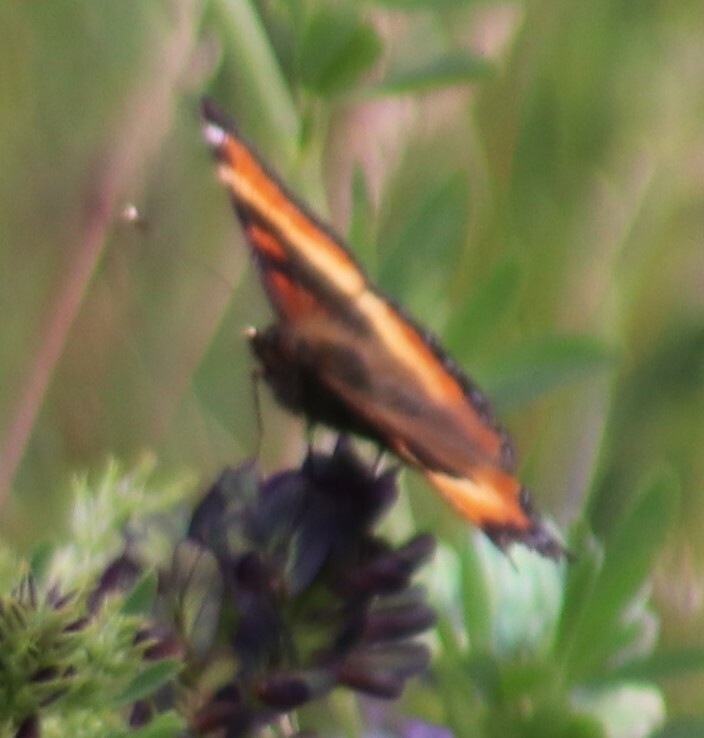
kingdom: Animalia
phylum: Arthropoda
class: Insecta
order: Lepidoptera
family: Nymphalidae
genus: Aglais
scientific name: Aglais milberti
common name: Milbert's tortoiseshell
